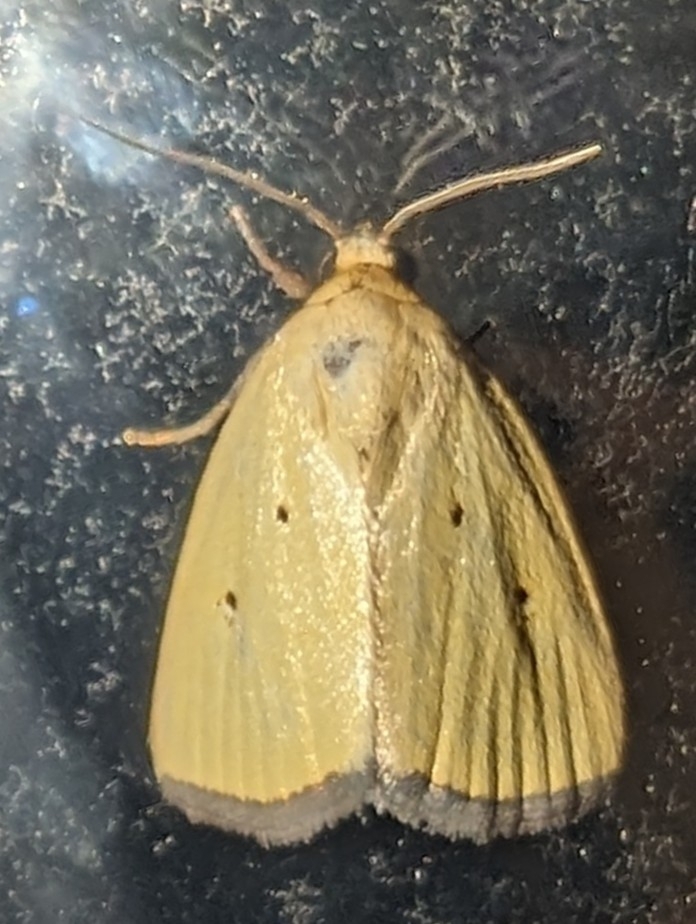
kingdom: Animalia
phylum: Arthropoda
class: Insecta
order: Lepidoptera
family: Noctuidae
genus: Marimatha
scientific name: Marimatha nigrofimbria
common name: Black-bordered lemon moth
